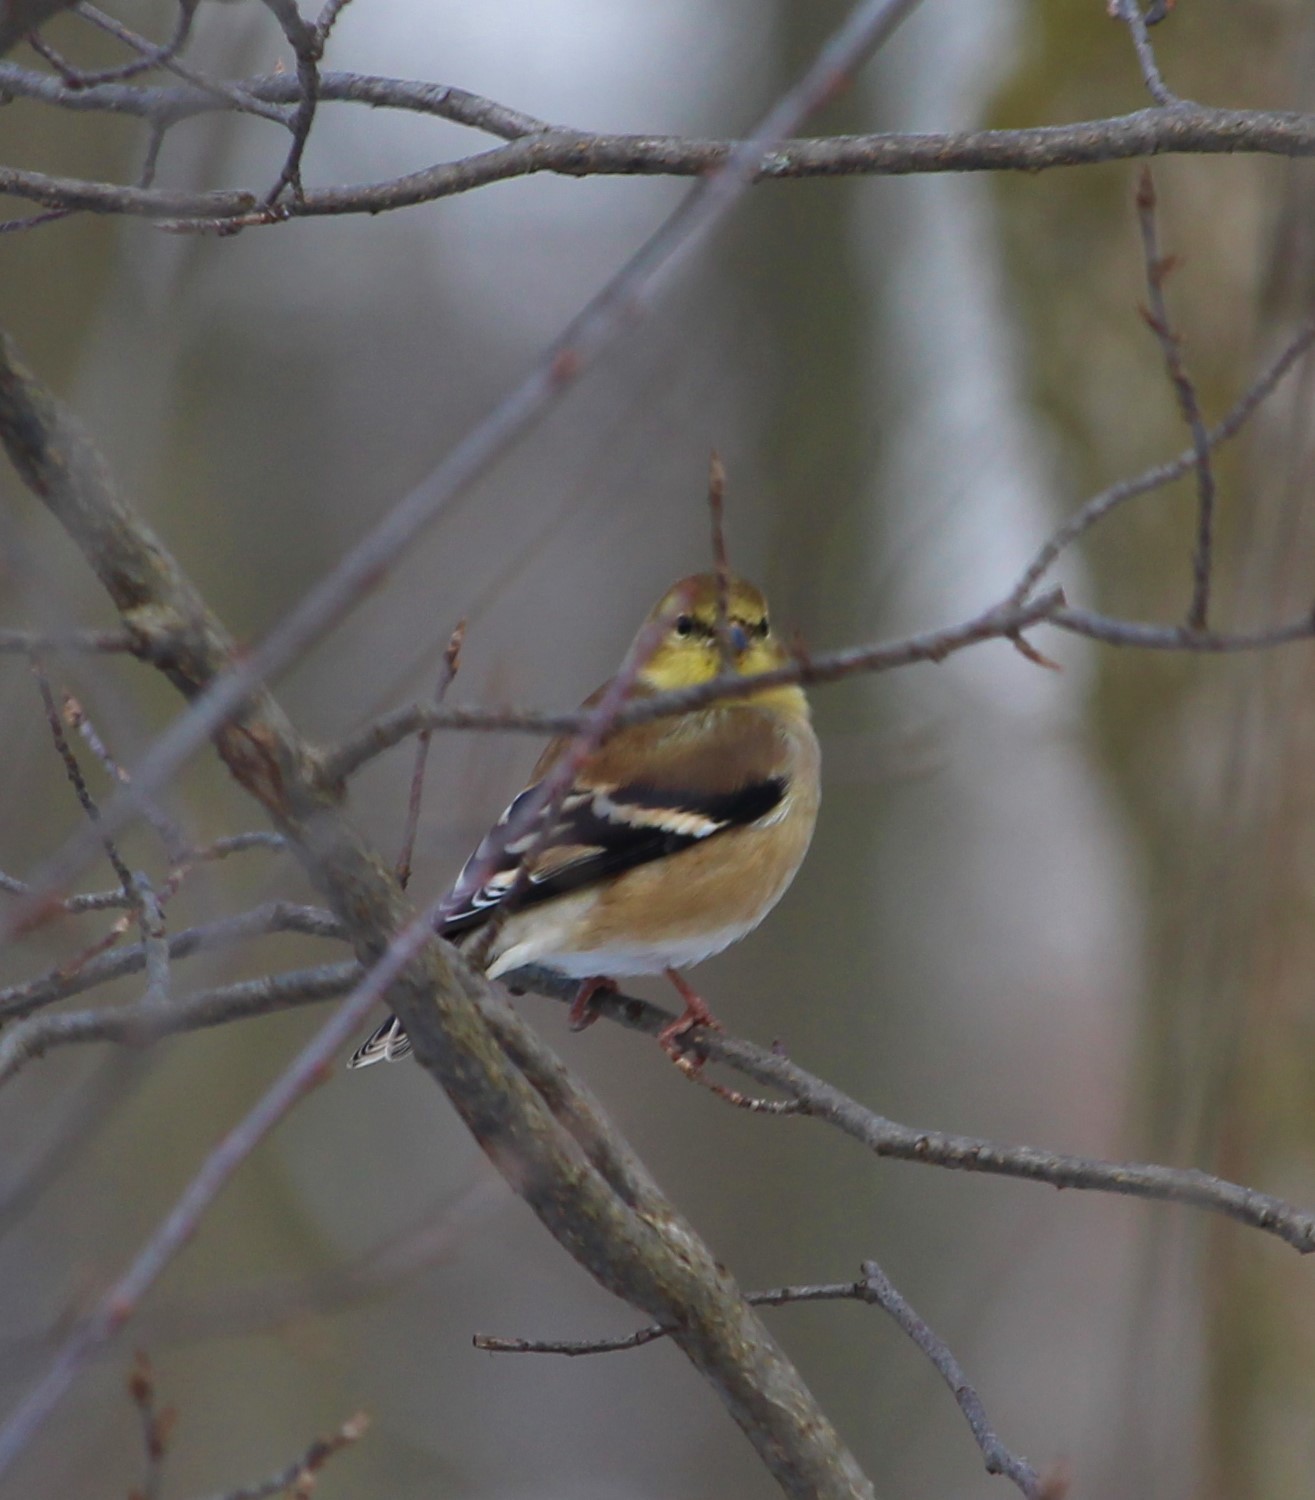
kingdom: Animalia
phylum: Chordata
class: Aves
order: Passeriformes
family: Fringillidae
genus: Spinus
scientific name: Spinus tristis
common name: American goldfinch
